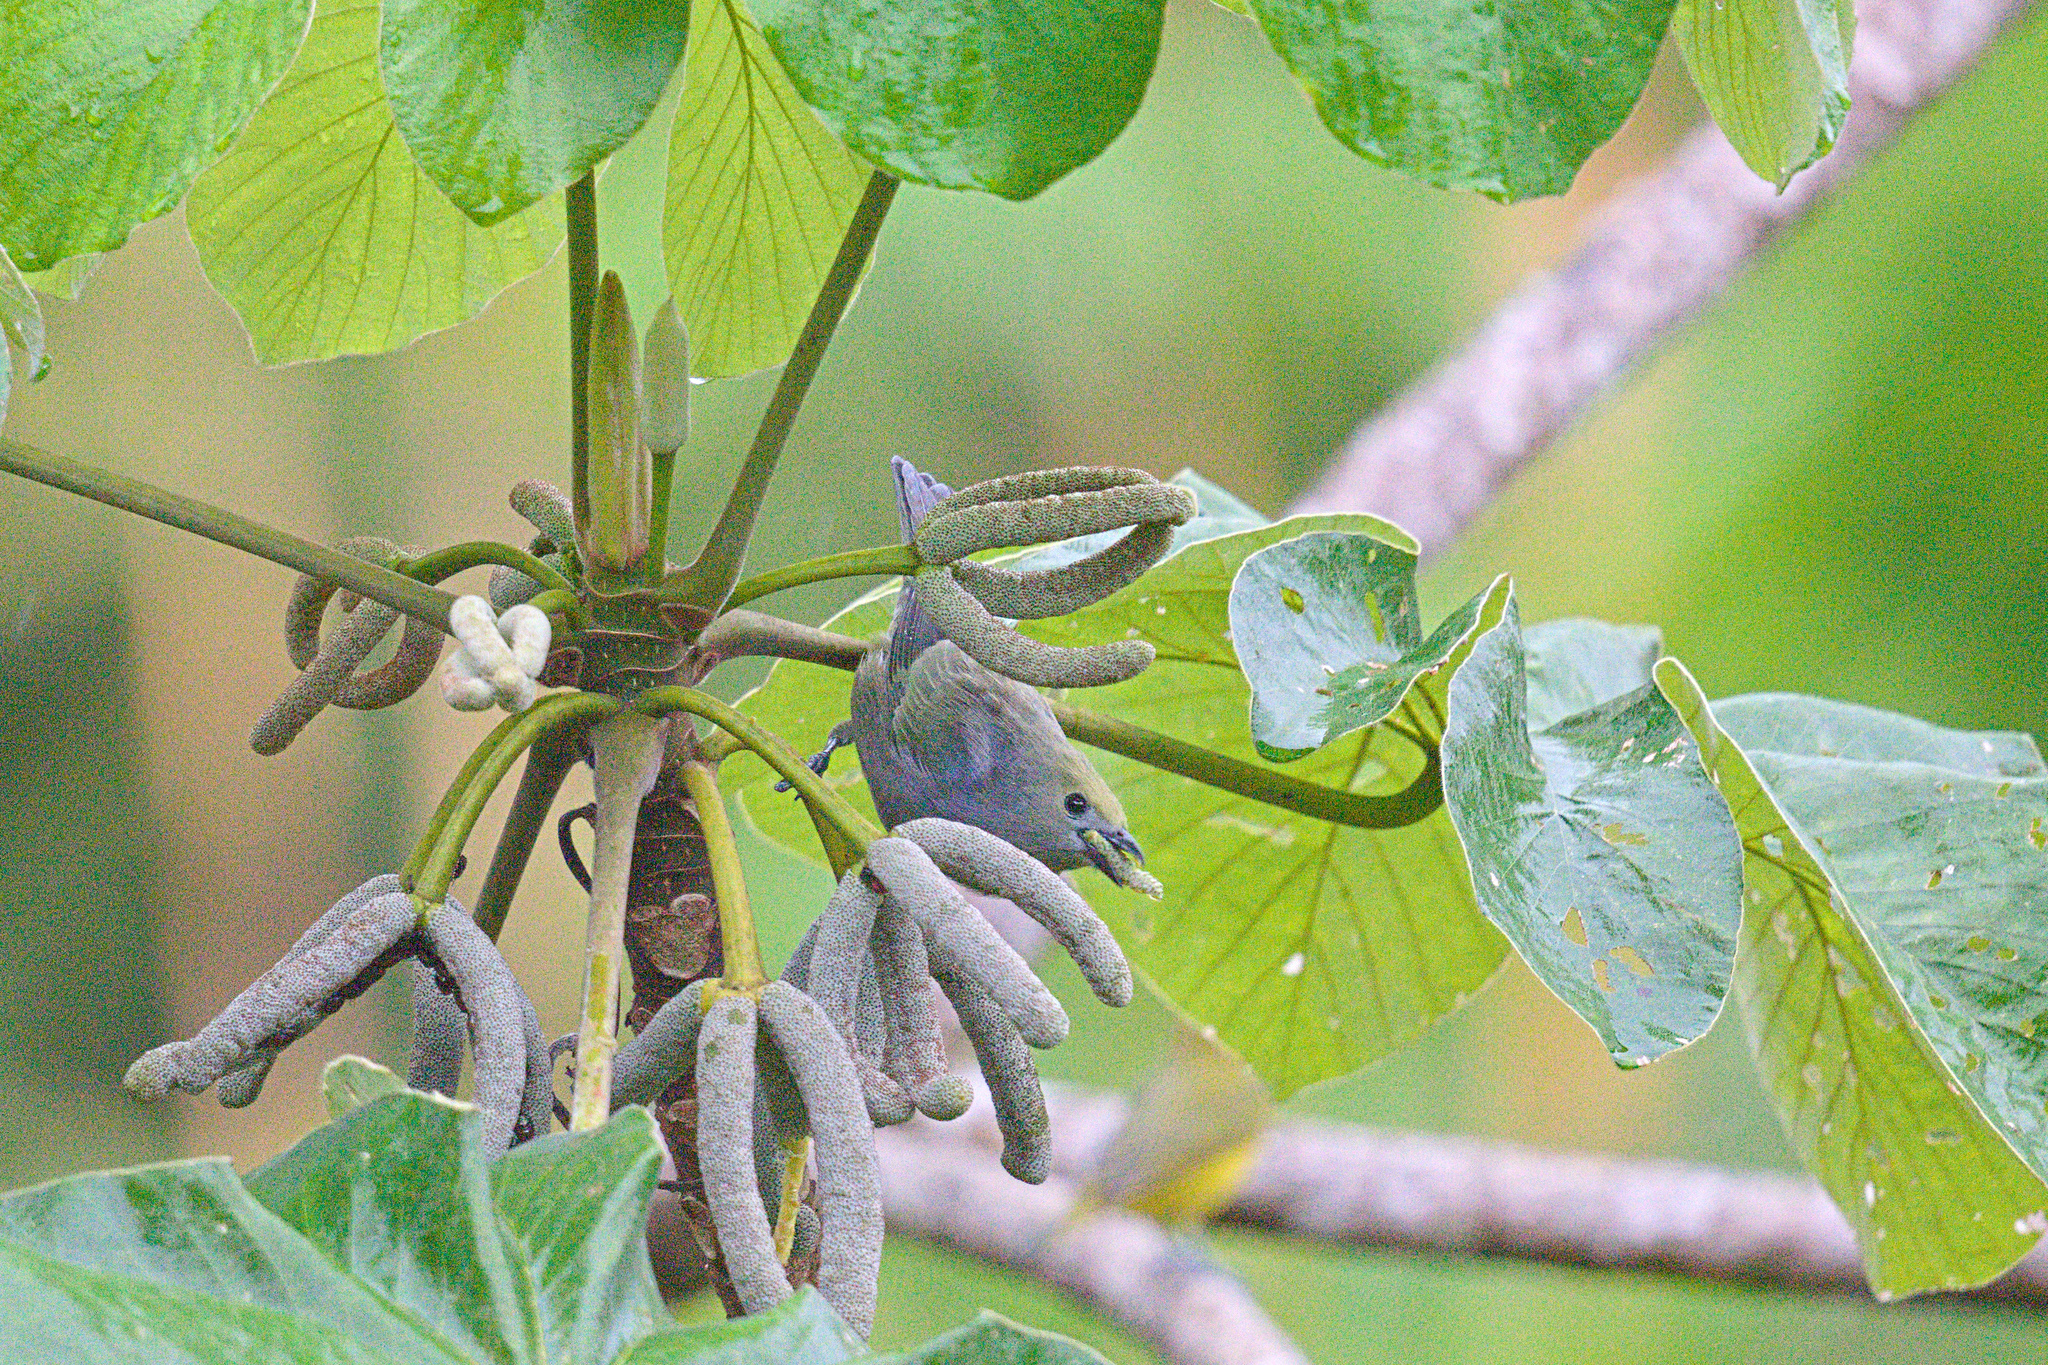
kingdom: Animalia
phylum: Chordata
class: Aves
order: Passeriformes
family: Thraupidae
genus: Thraupis
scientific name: Thraupis palmarum
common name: Palm tanager
